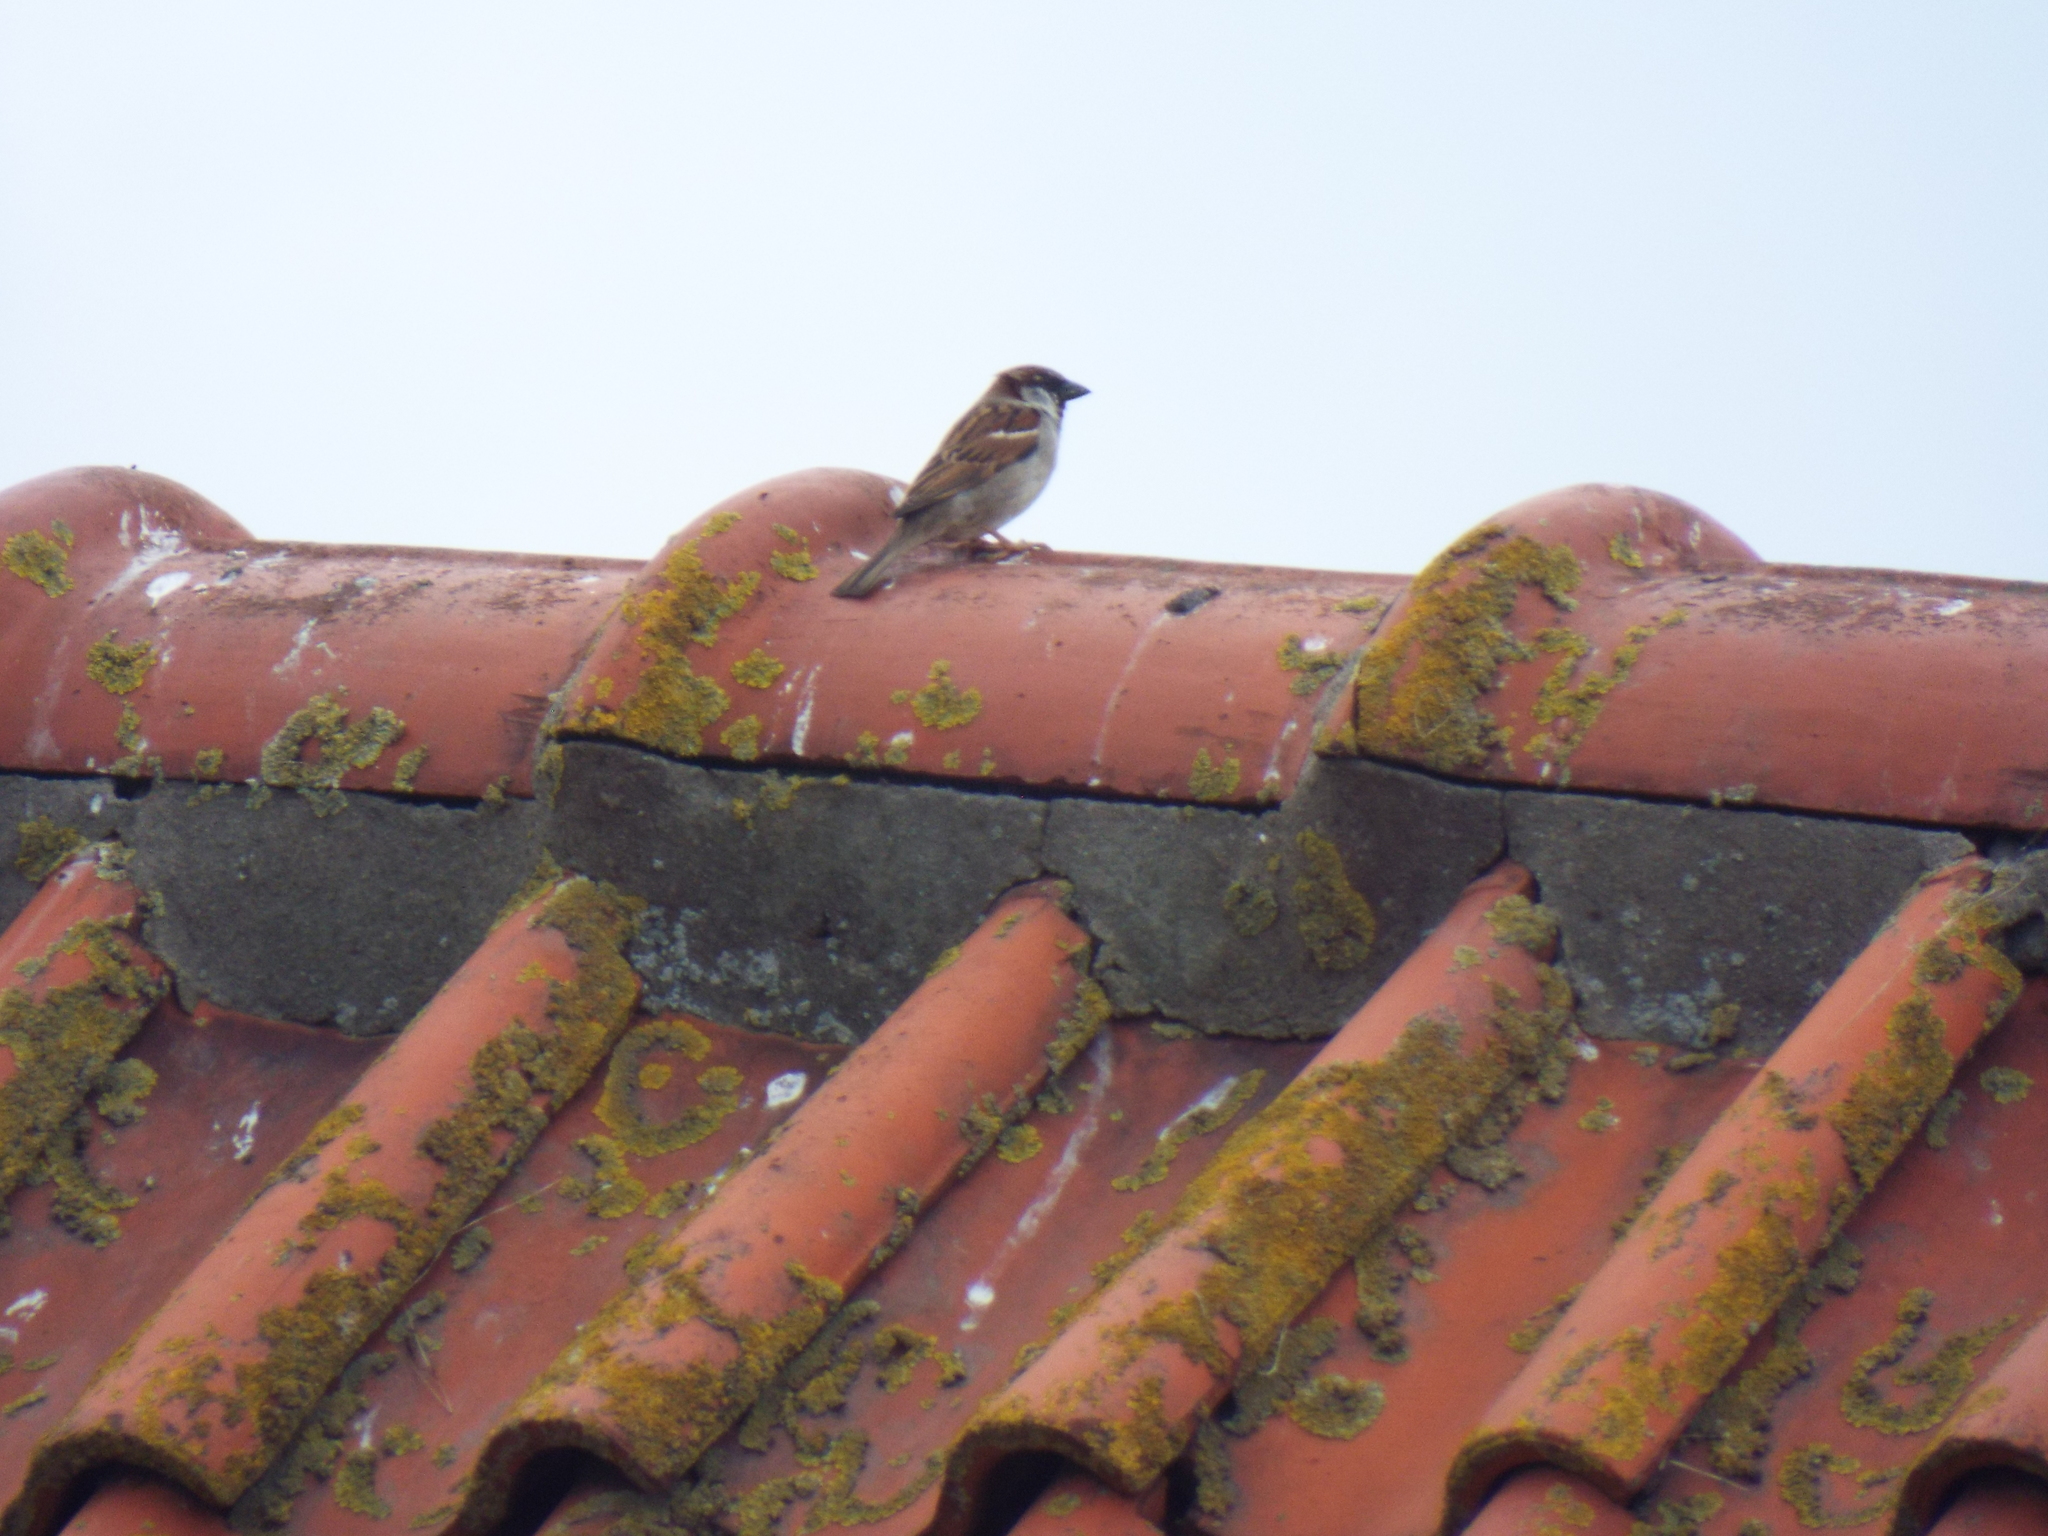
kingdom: Animalia
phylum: Chordata
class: Aves
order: Passeriformes
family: Passeridae
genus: Passer
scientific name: Passer domesticus
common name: House sparrow
